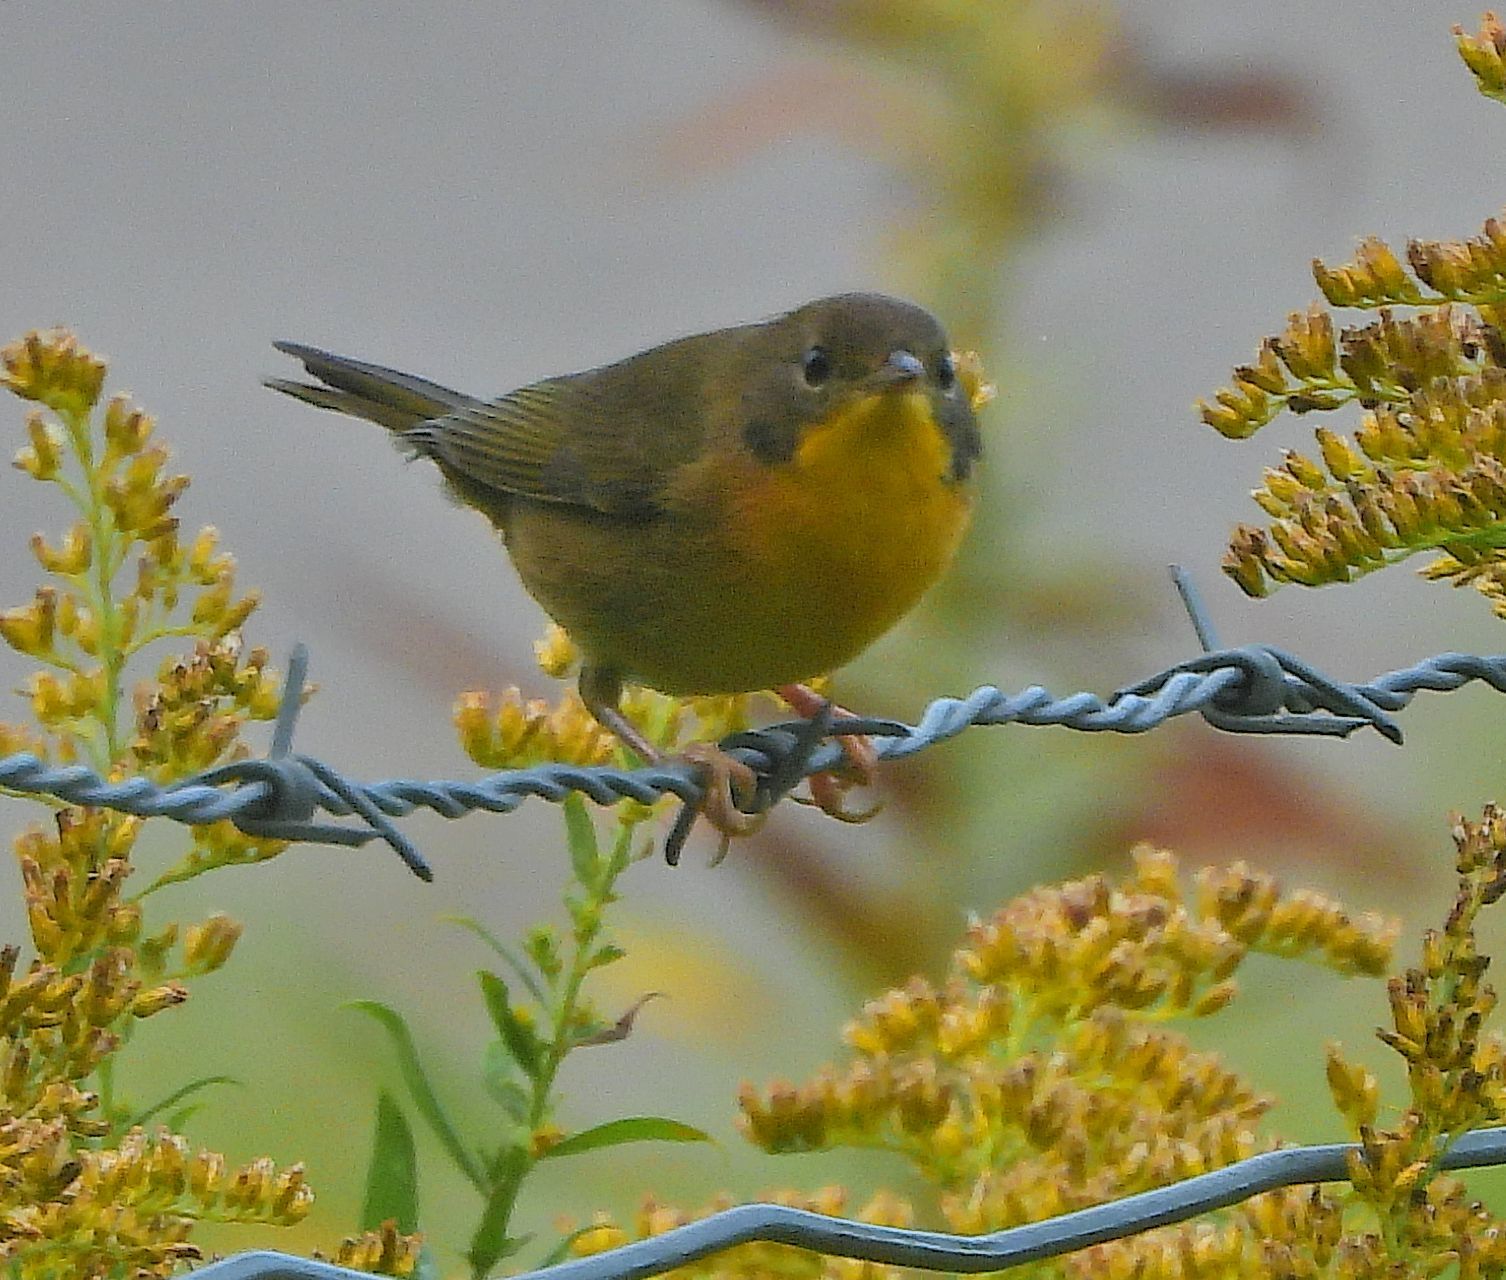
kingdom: Animalia
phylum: Chordata
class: Aves
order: Passeriformes
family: Parulidae
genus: Geothlypis
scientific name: Geothlypis trichas
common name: Common yellowthroat
